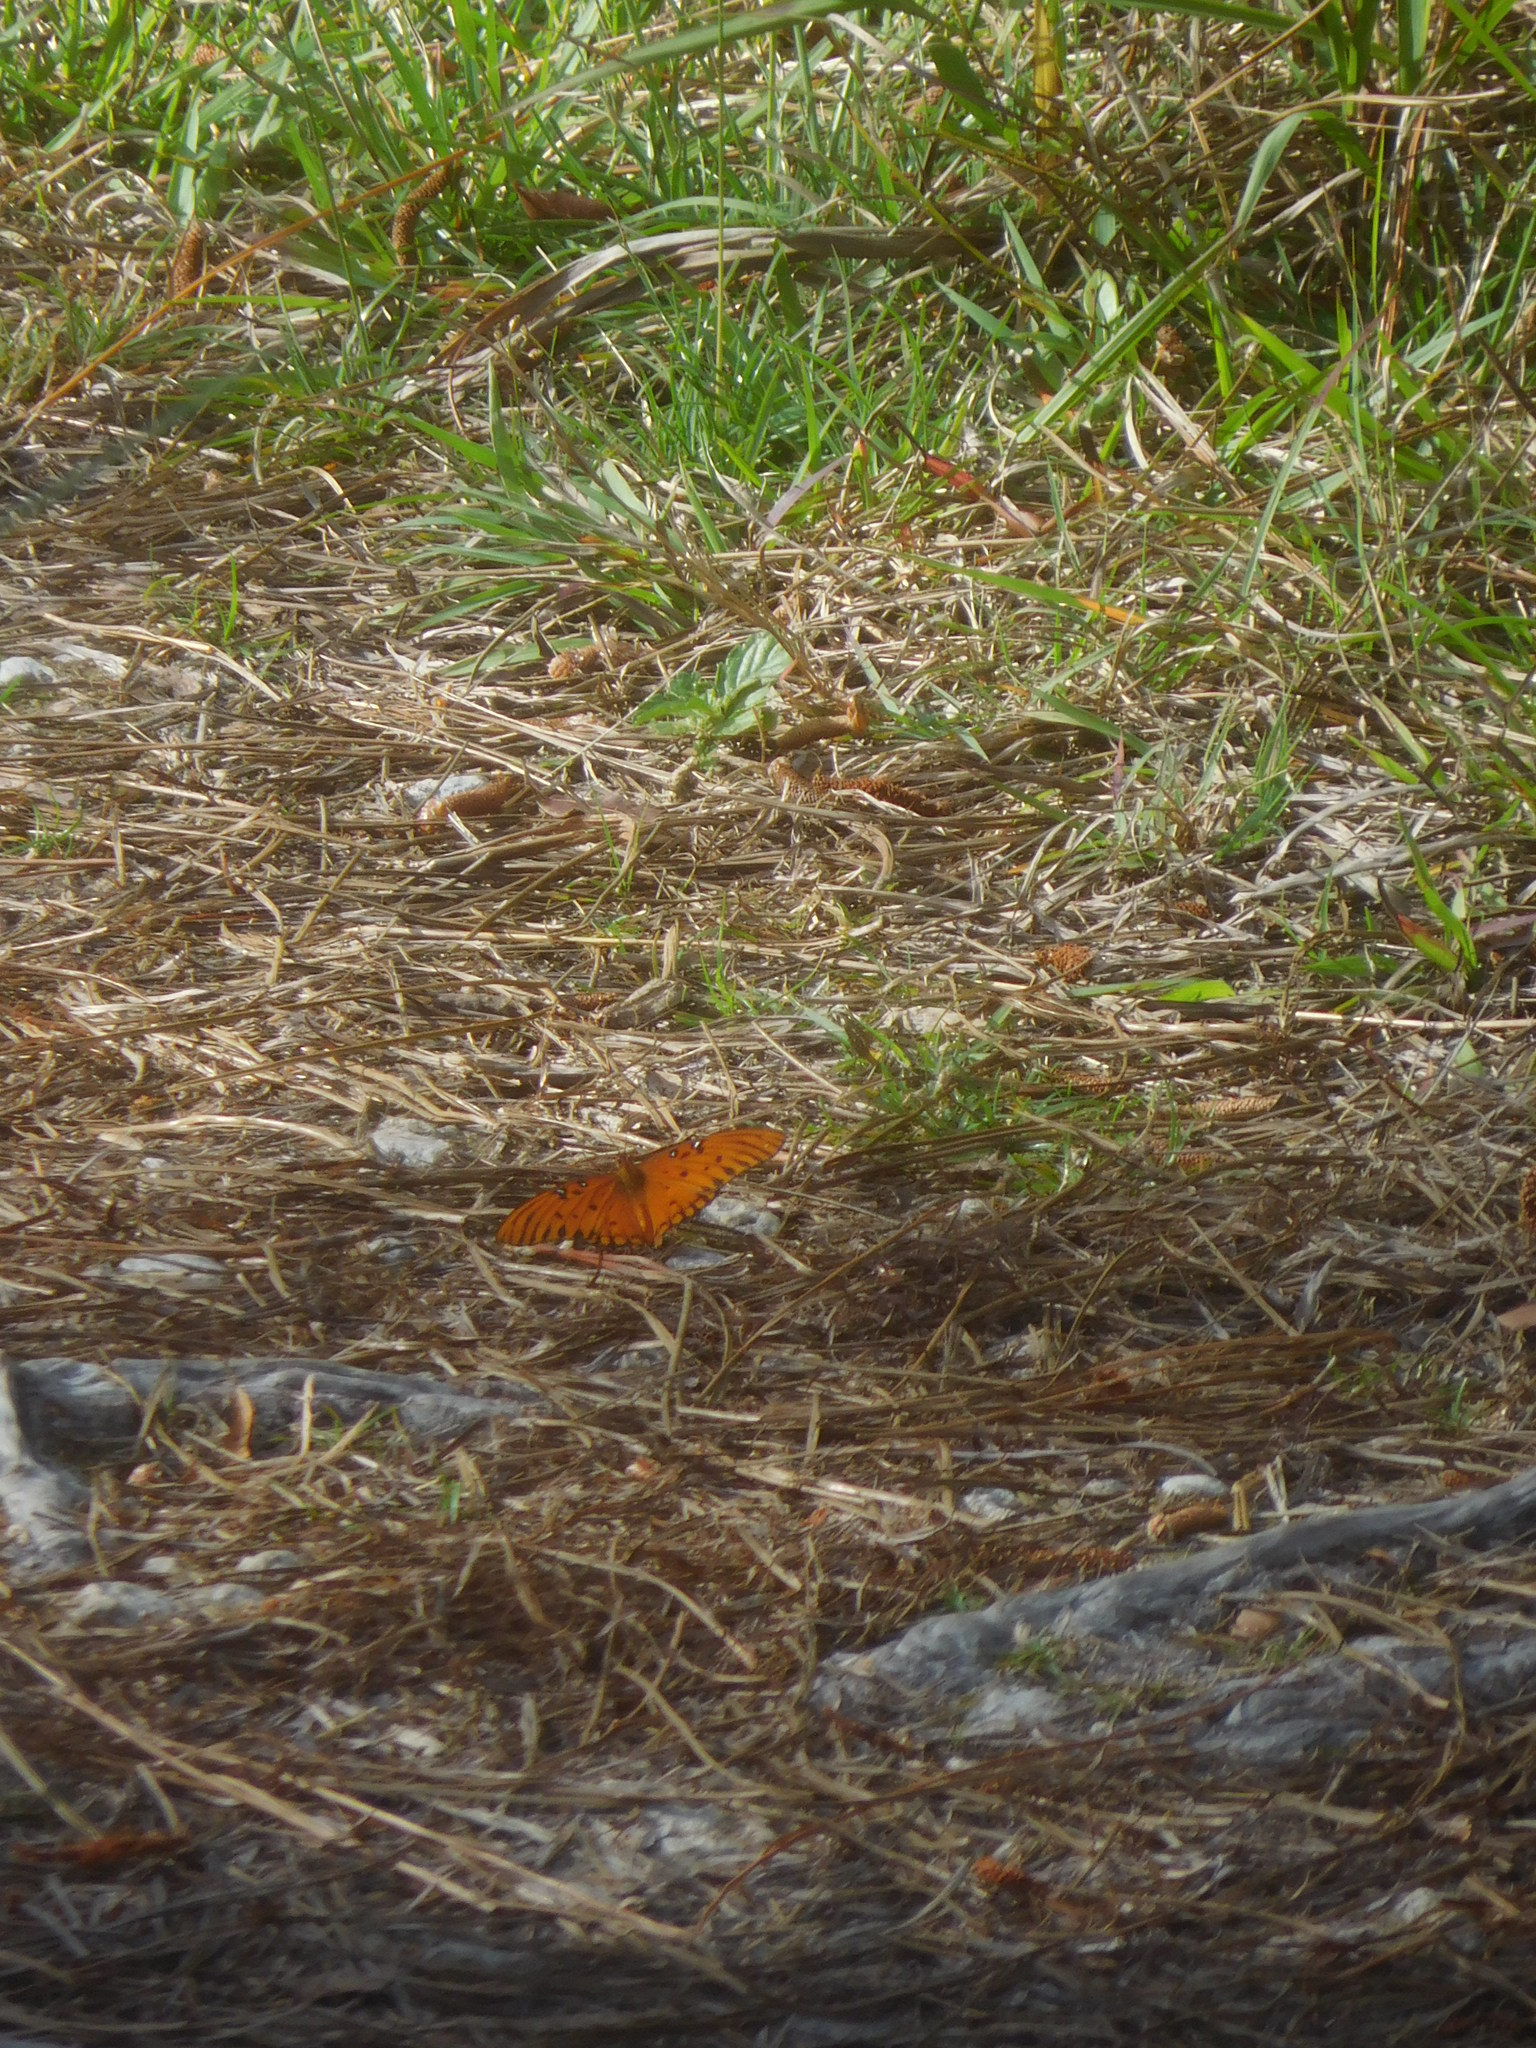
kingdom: Animalia
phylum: Arthropoda
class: Insecta
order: Lepidoptera
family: Nymphalidae
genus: Dione
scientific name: Dione vanillae
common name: Gulf fritillary
